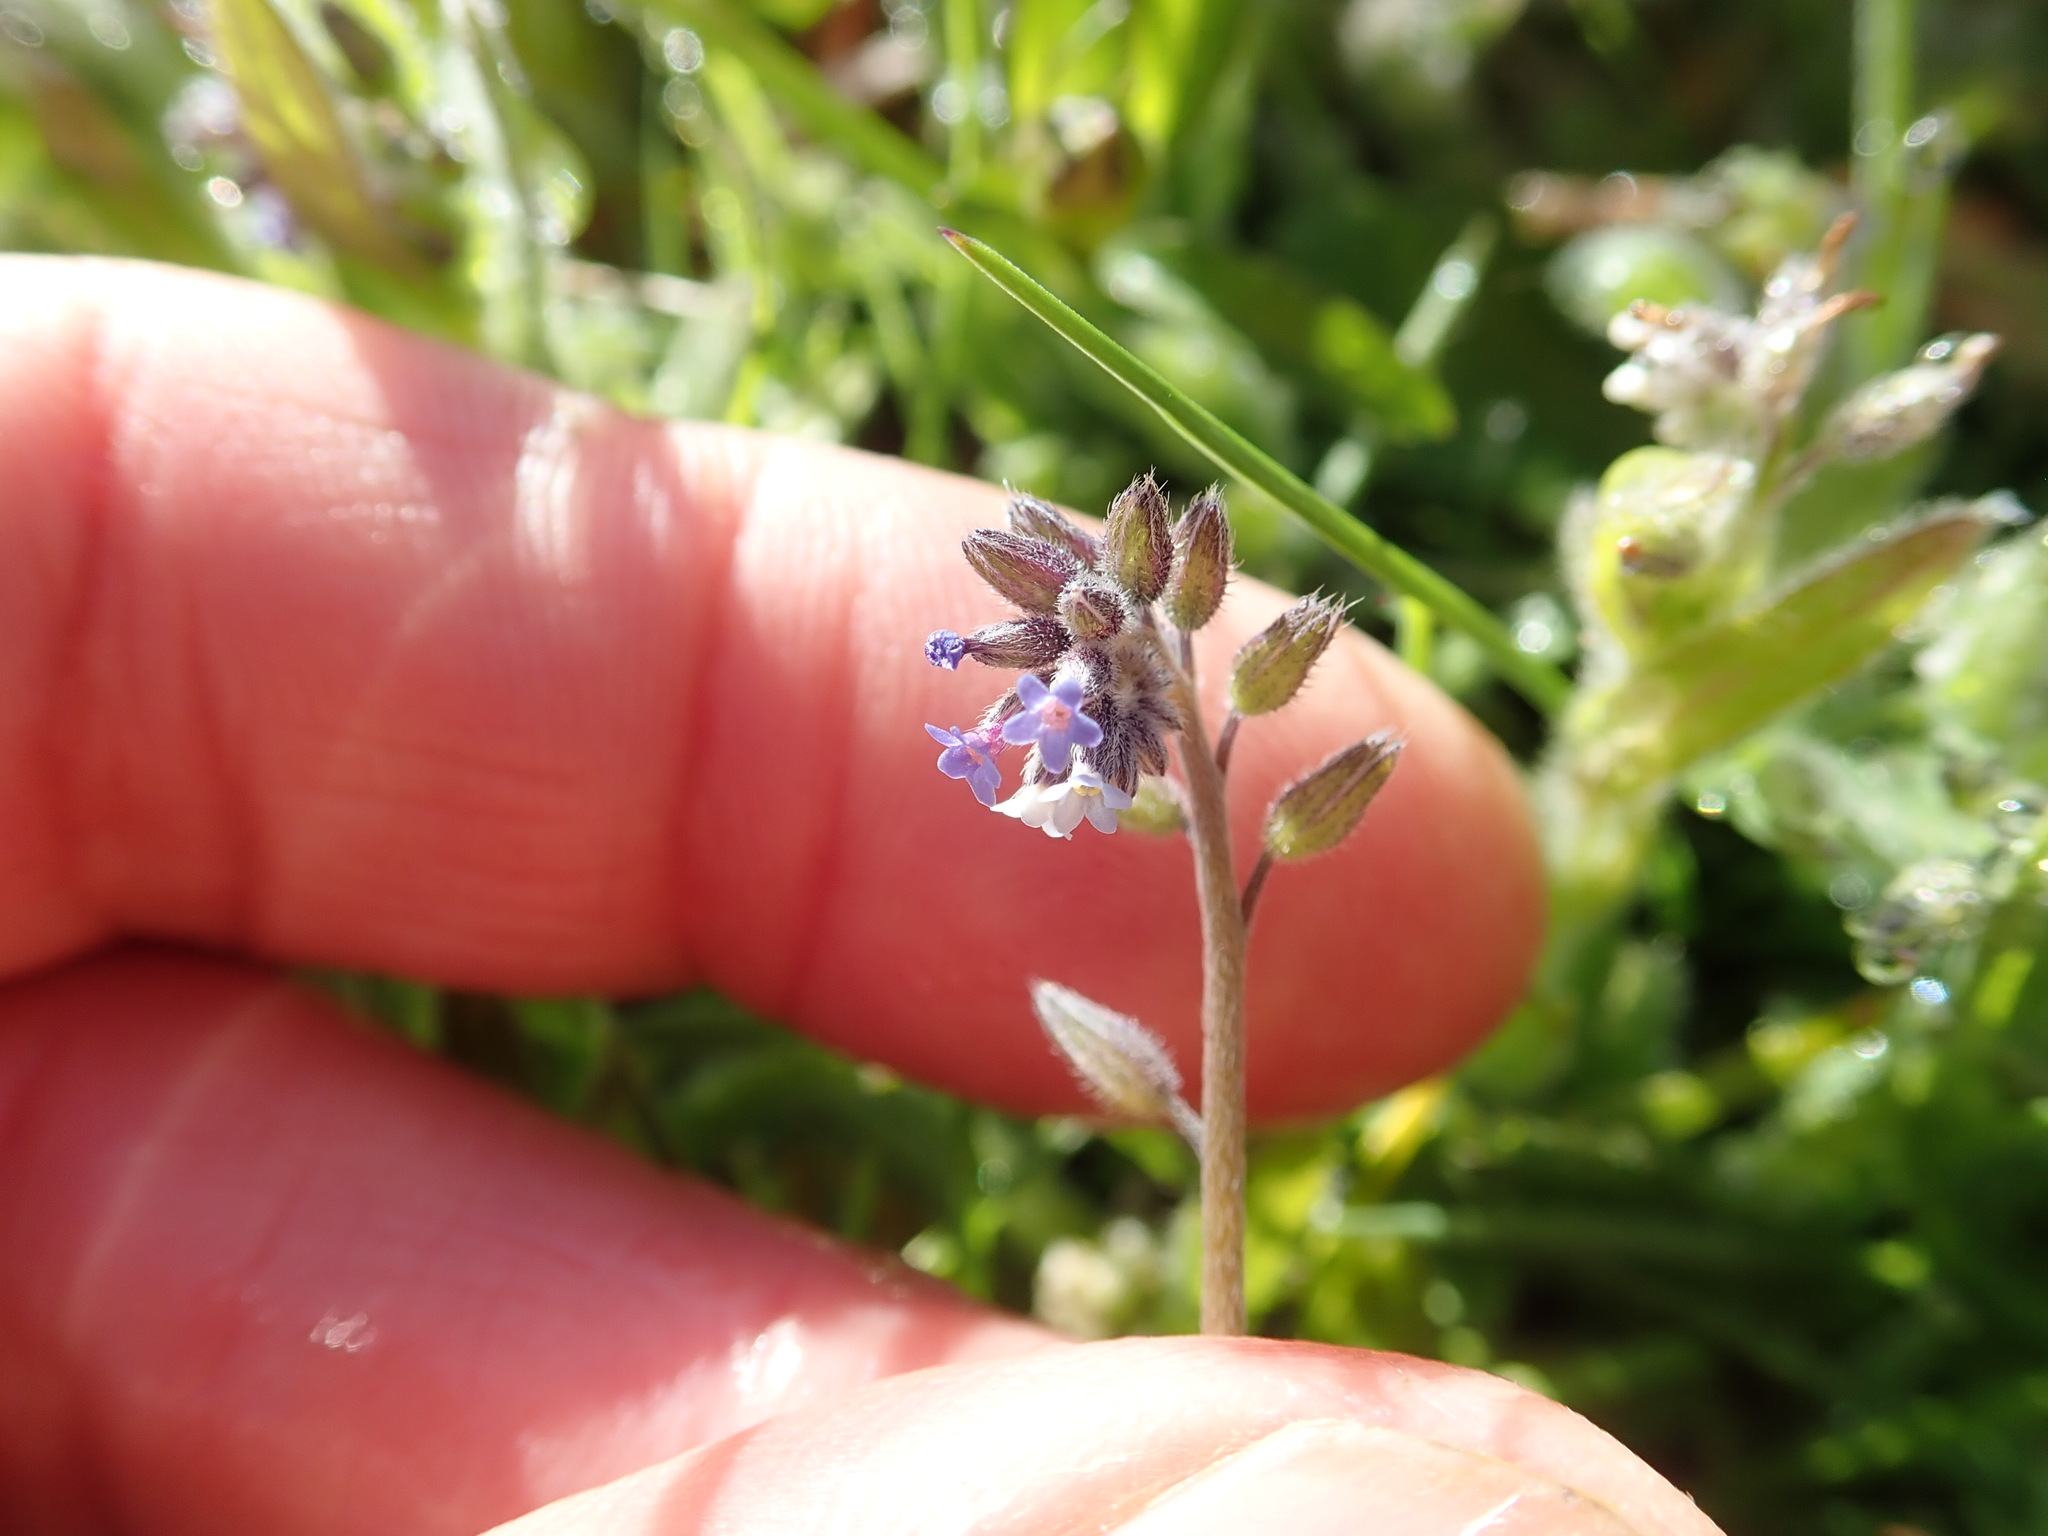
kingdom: Plantae
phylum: Tracheophyta
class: Magnoliopsida
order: Boraginales
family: Boraginaceae
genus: Myosotis
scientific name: Myosotis discolor
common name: Changing forget-me-not
